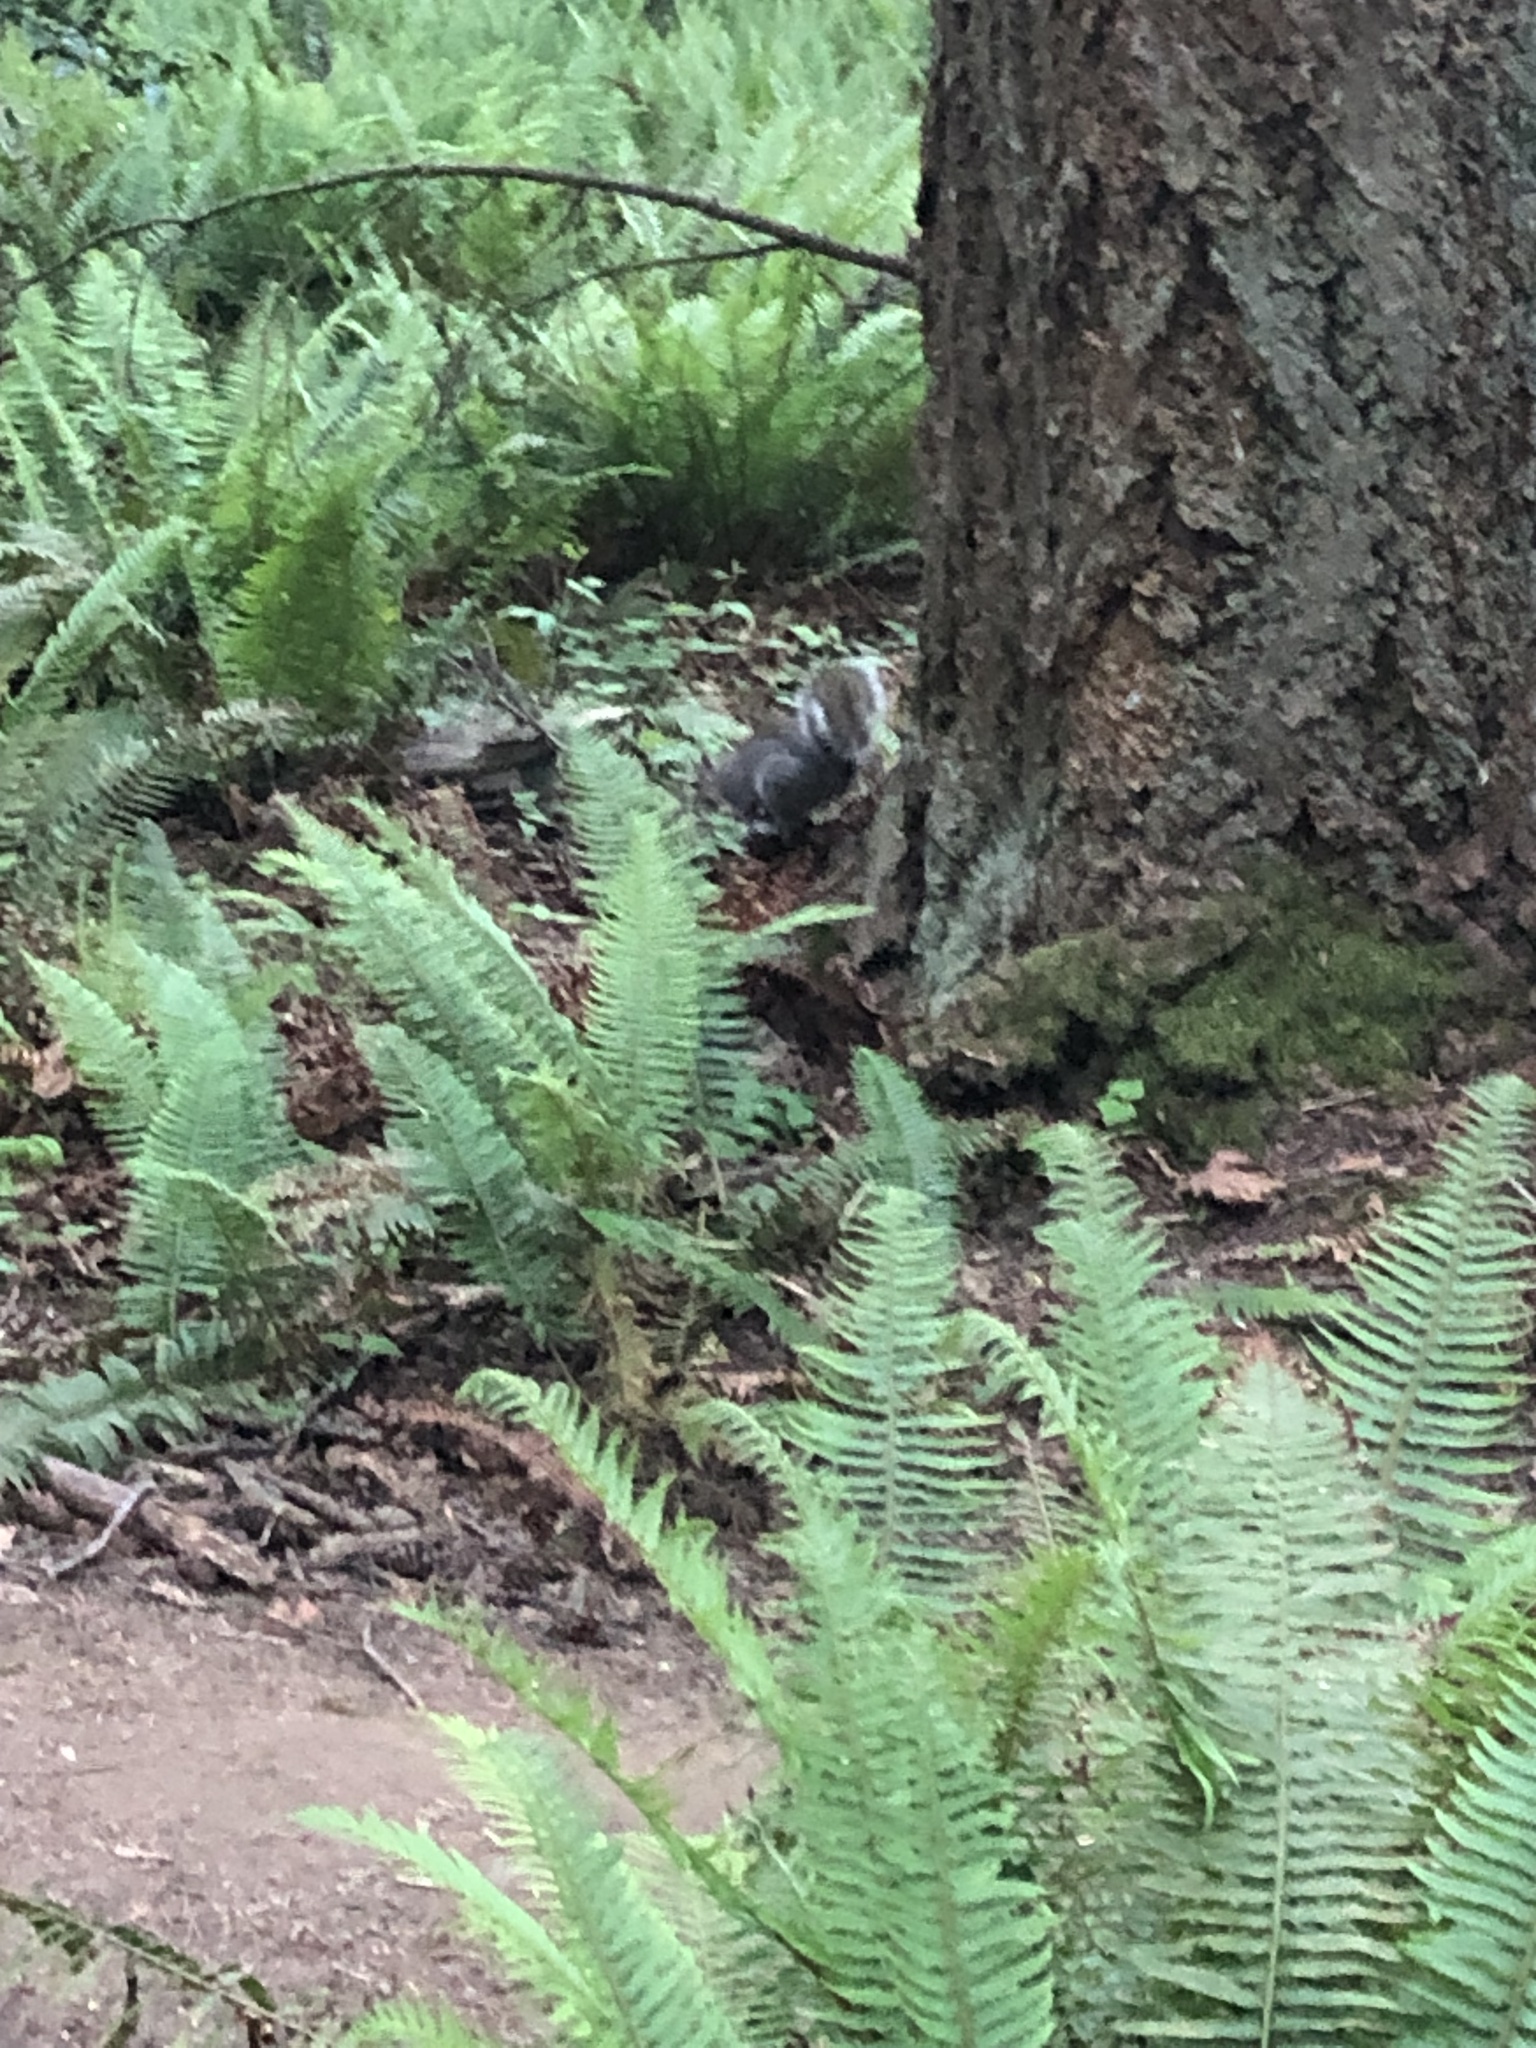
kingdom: Animalia
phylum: Chordata
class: Mammalia
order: Rodentia
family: Sciuridae
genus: Sciurus
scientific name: Sciurus carolinensis
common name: Eastern gray squirrel
